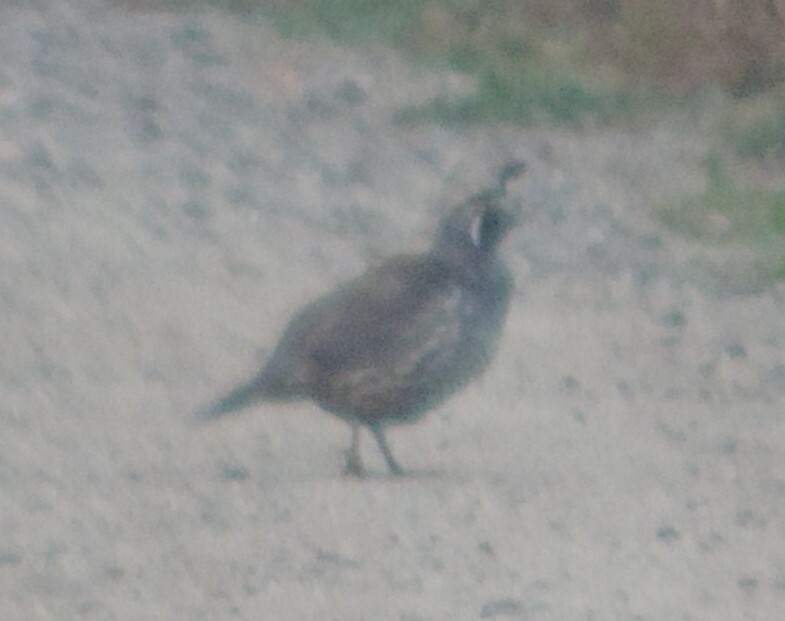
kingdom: Animalia
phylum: Chordata
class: Aves
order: Galliformes
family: Odontophoridae
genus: Callipepla
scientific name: Callipepla californica
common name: California quail
